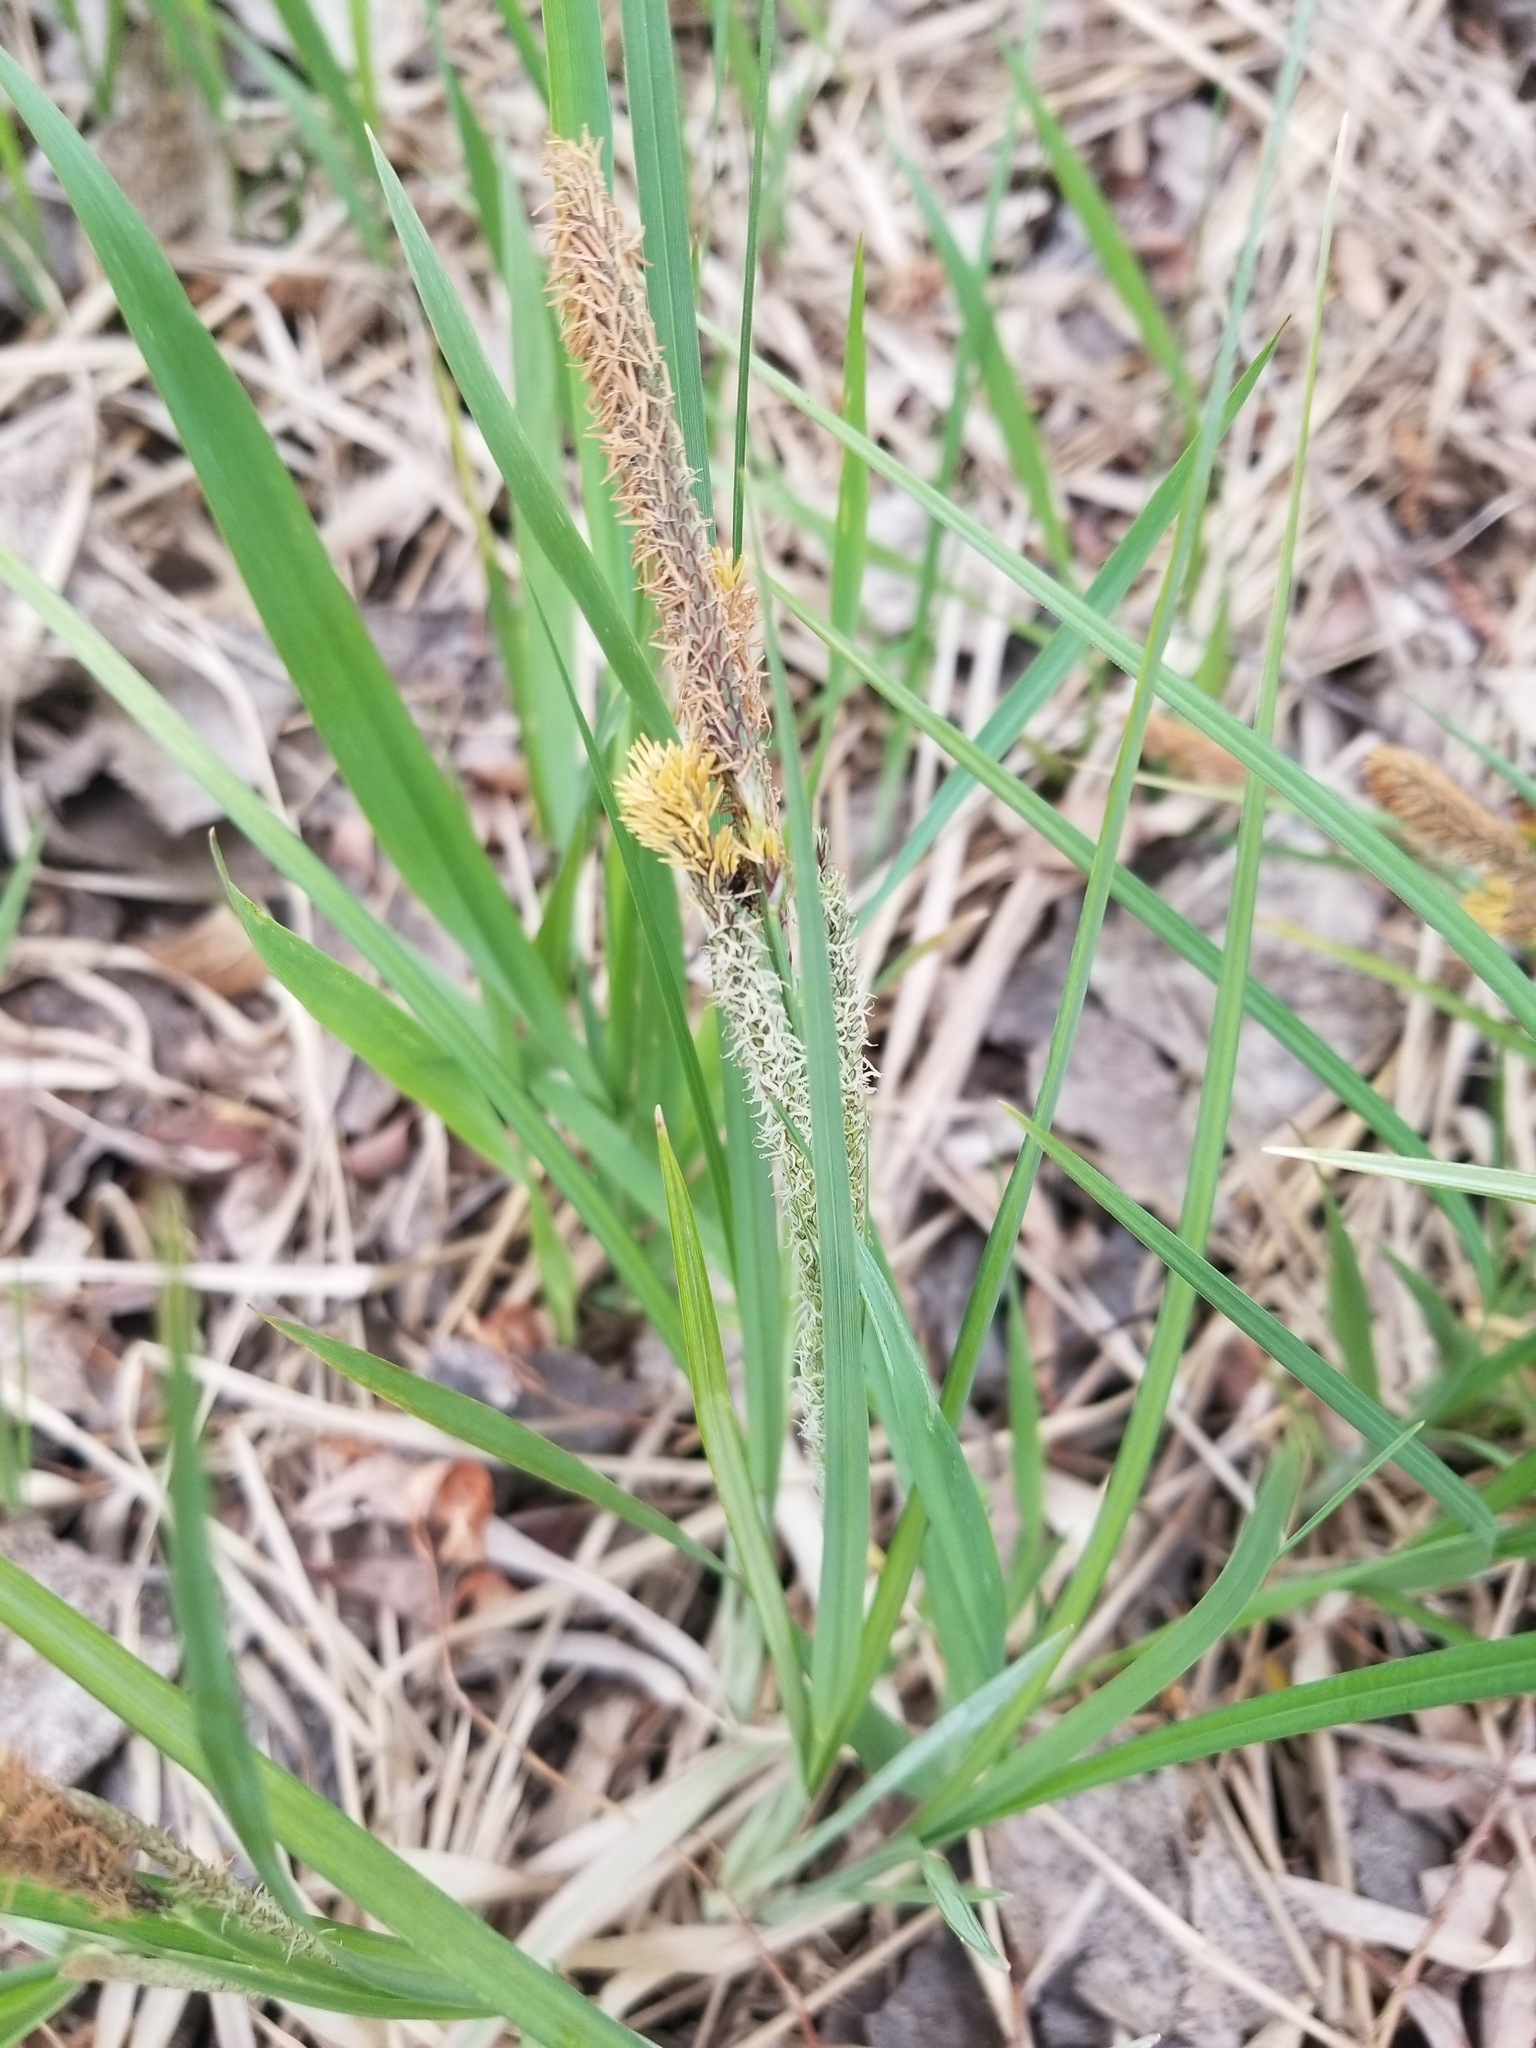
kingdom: Plantae
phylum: Tracheophyta
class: Liliopsida
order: Poales
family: Cyperaceae
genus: Carex
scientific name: Carex aquatilis
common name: Water sedge
